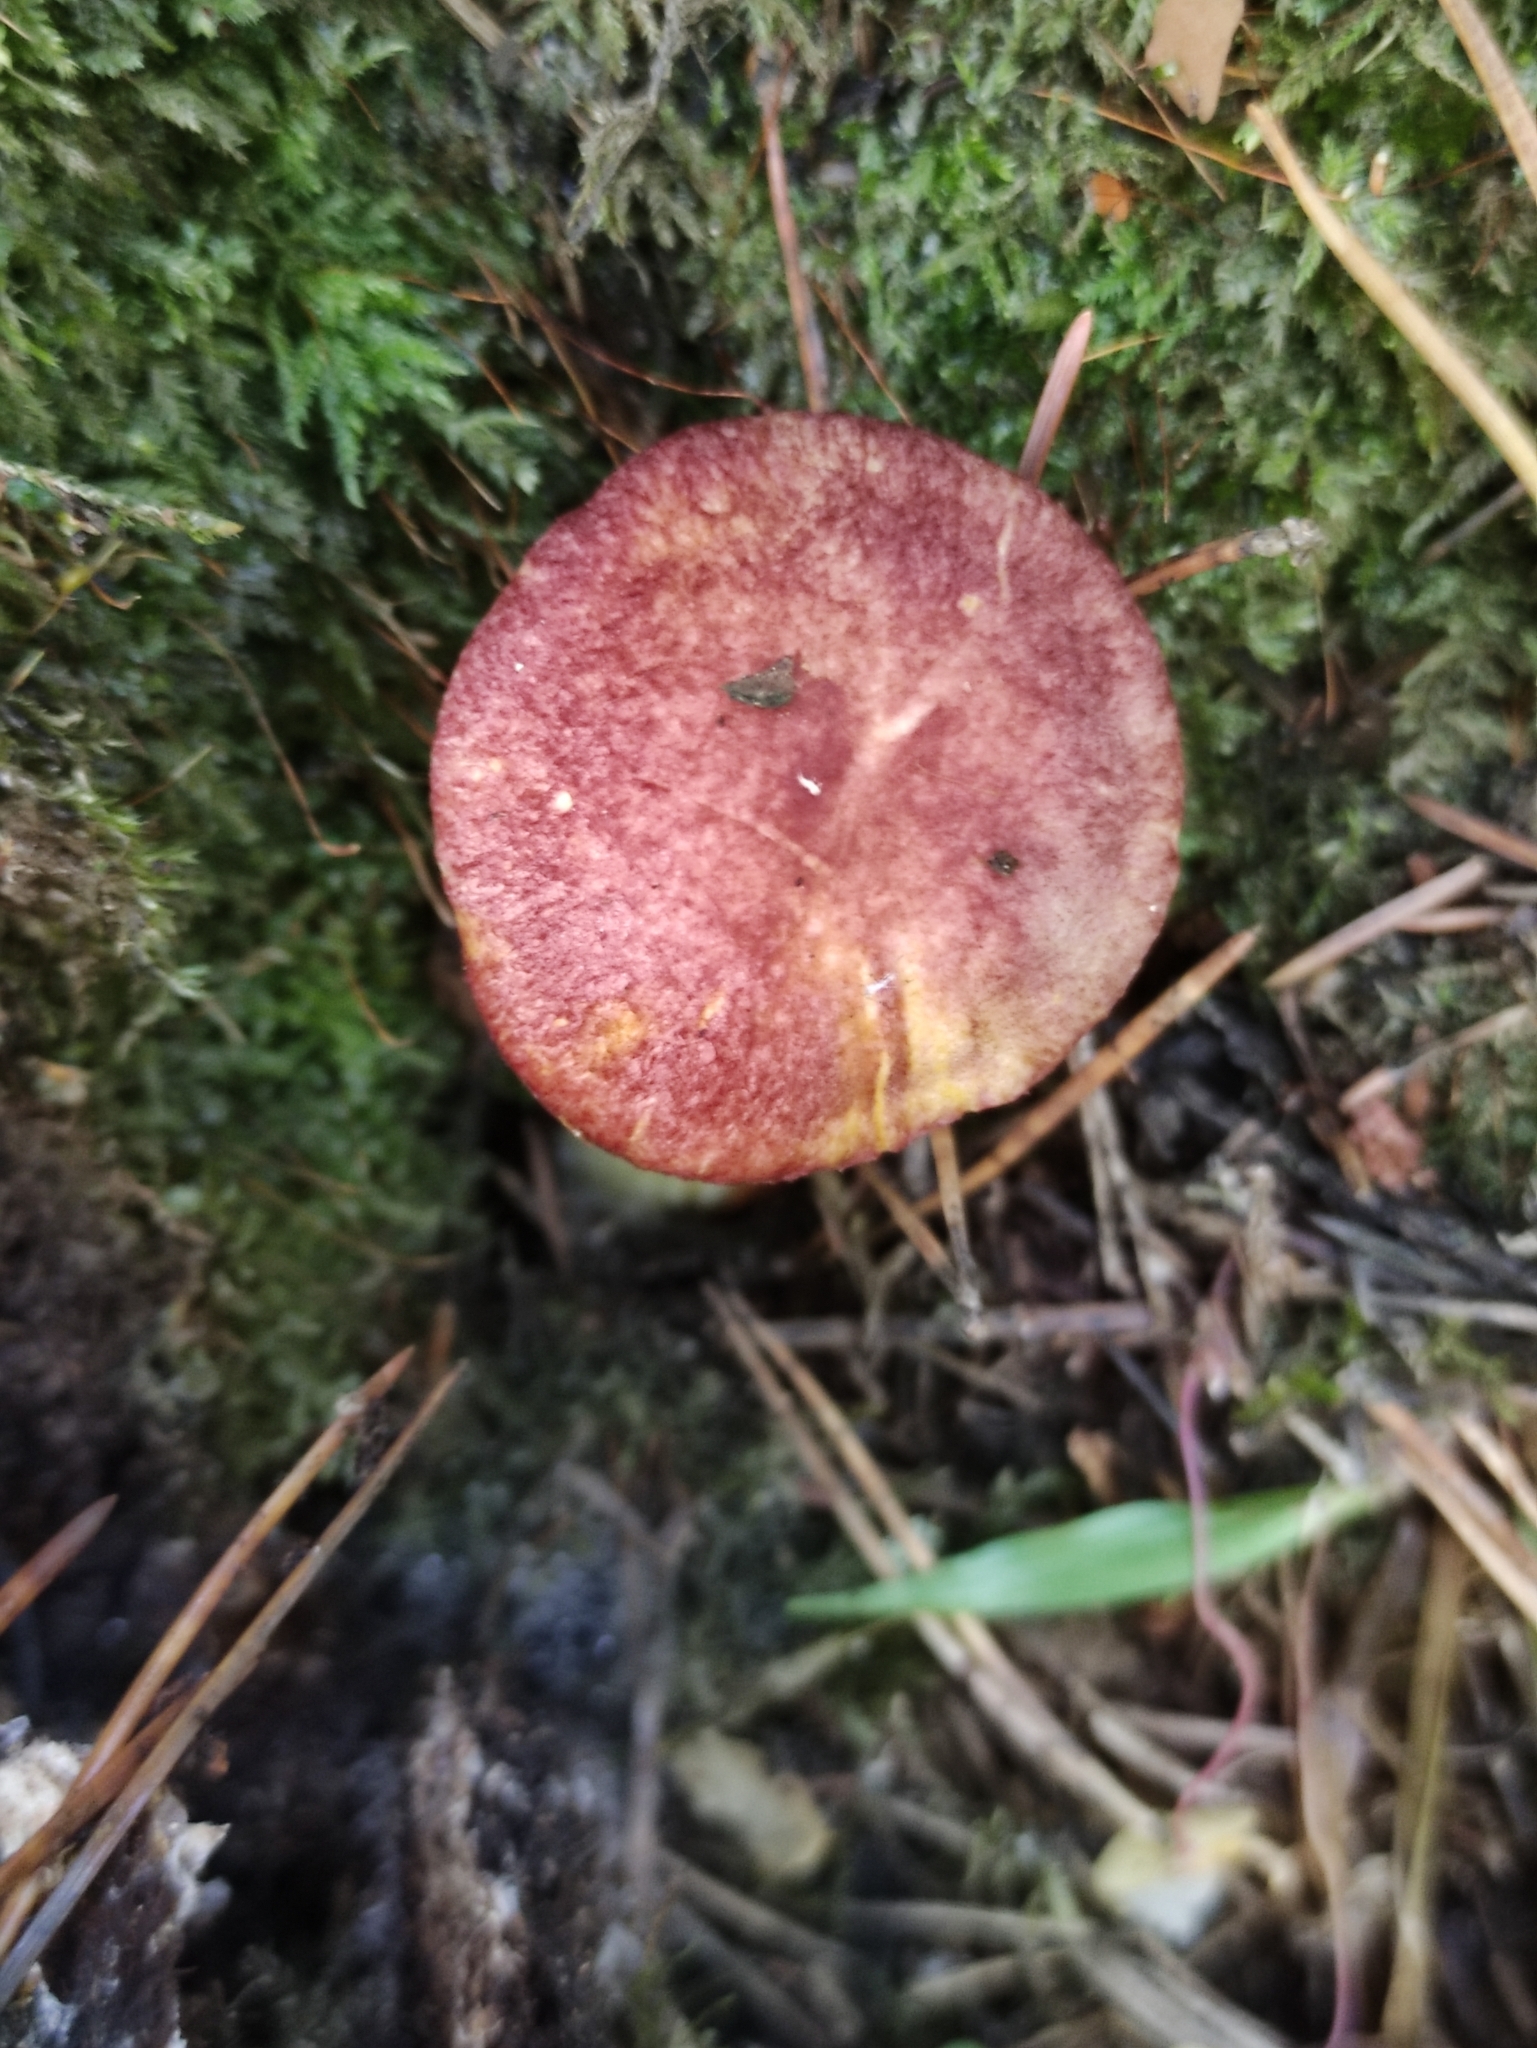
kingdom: Fungi
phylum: Basidiomycota
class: Agaricomycetes
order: Agaricales
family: Tricholomataceae
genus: Tricholomopsis
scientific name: Tricholomopsis rutilans
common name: Plums and custard
